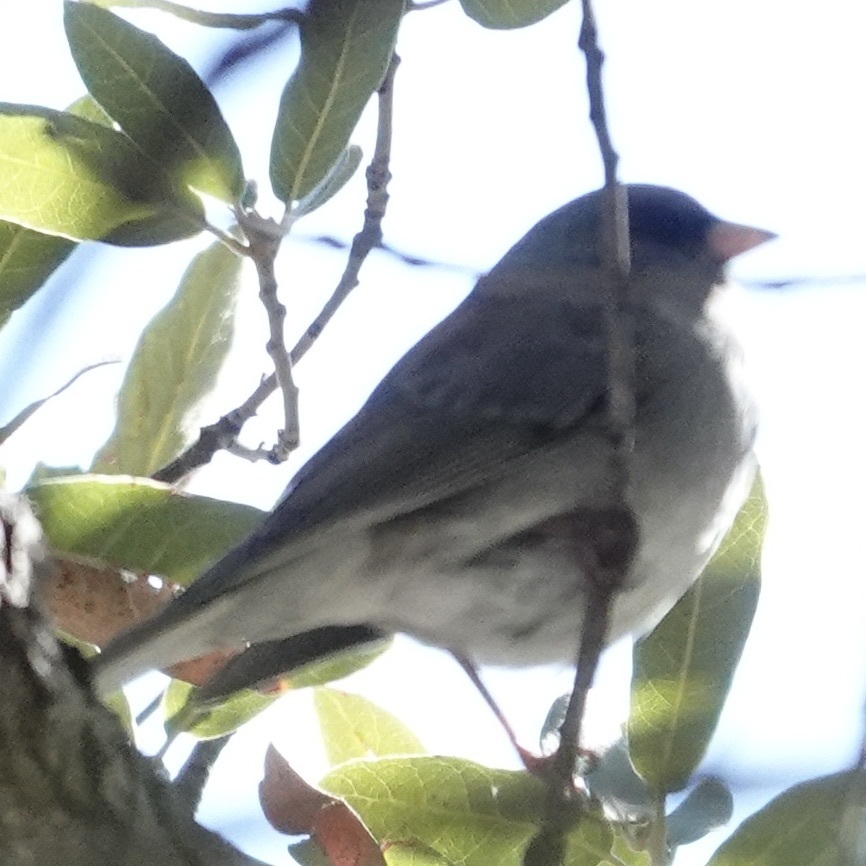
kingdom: Animalia
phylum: Chordata
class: Aves
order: Passeriformes
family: Passerellidae
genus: Junco
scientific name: Junco hyemalis
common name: Dark-eyed junco
